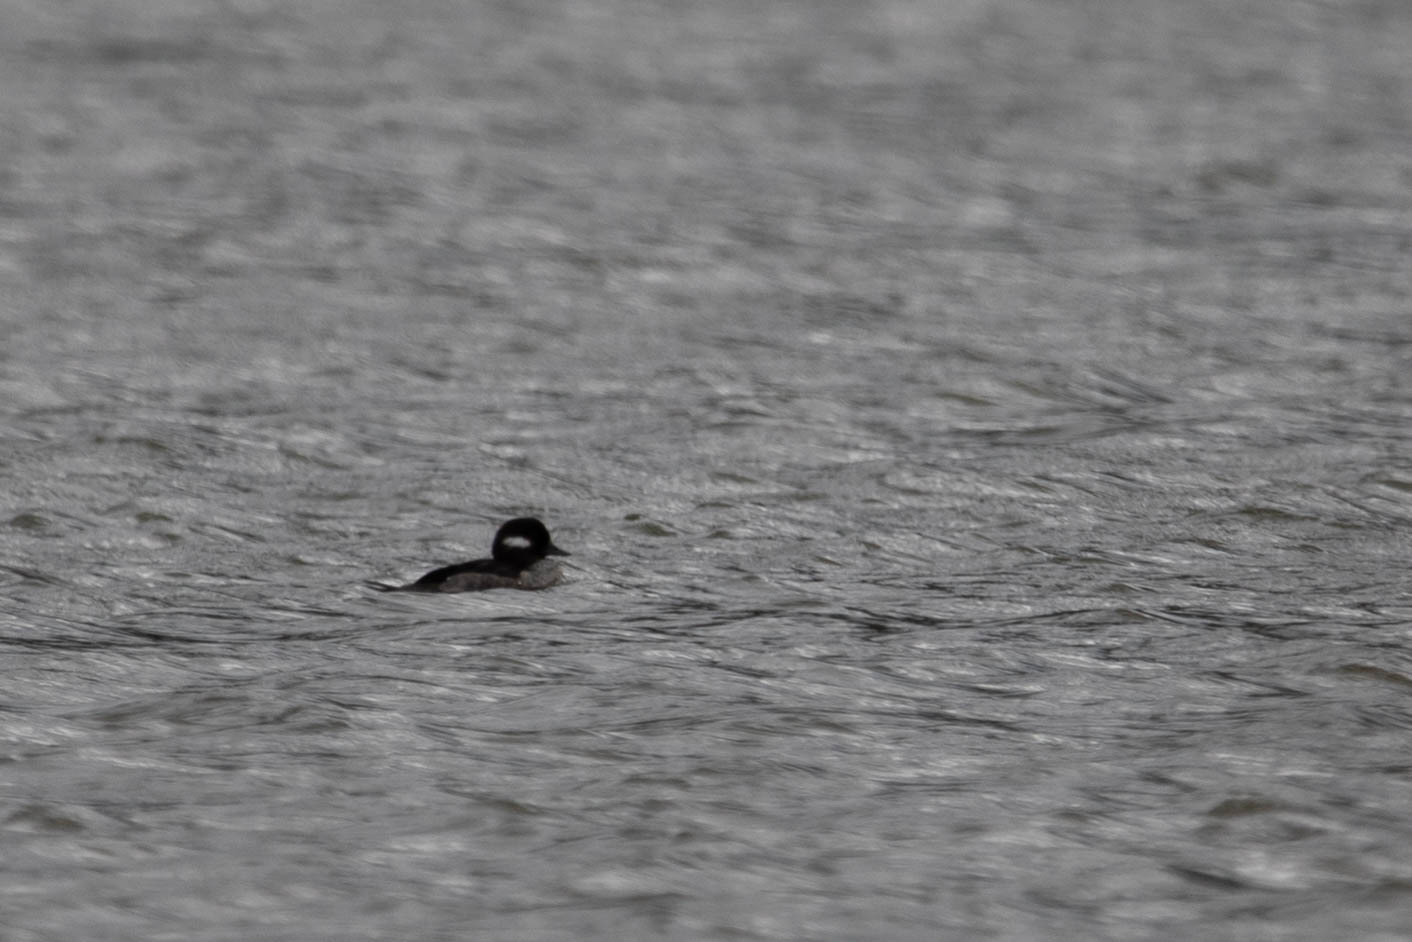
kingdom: Animalia
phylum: Chordata
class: Aves
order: Anseriformes
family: Anatidae
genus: Bucephala
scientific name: Bucephala albeola
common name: Bufflehead
